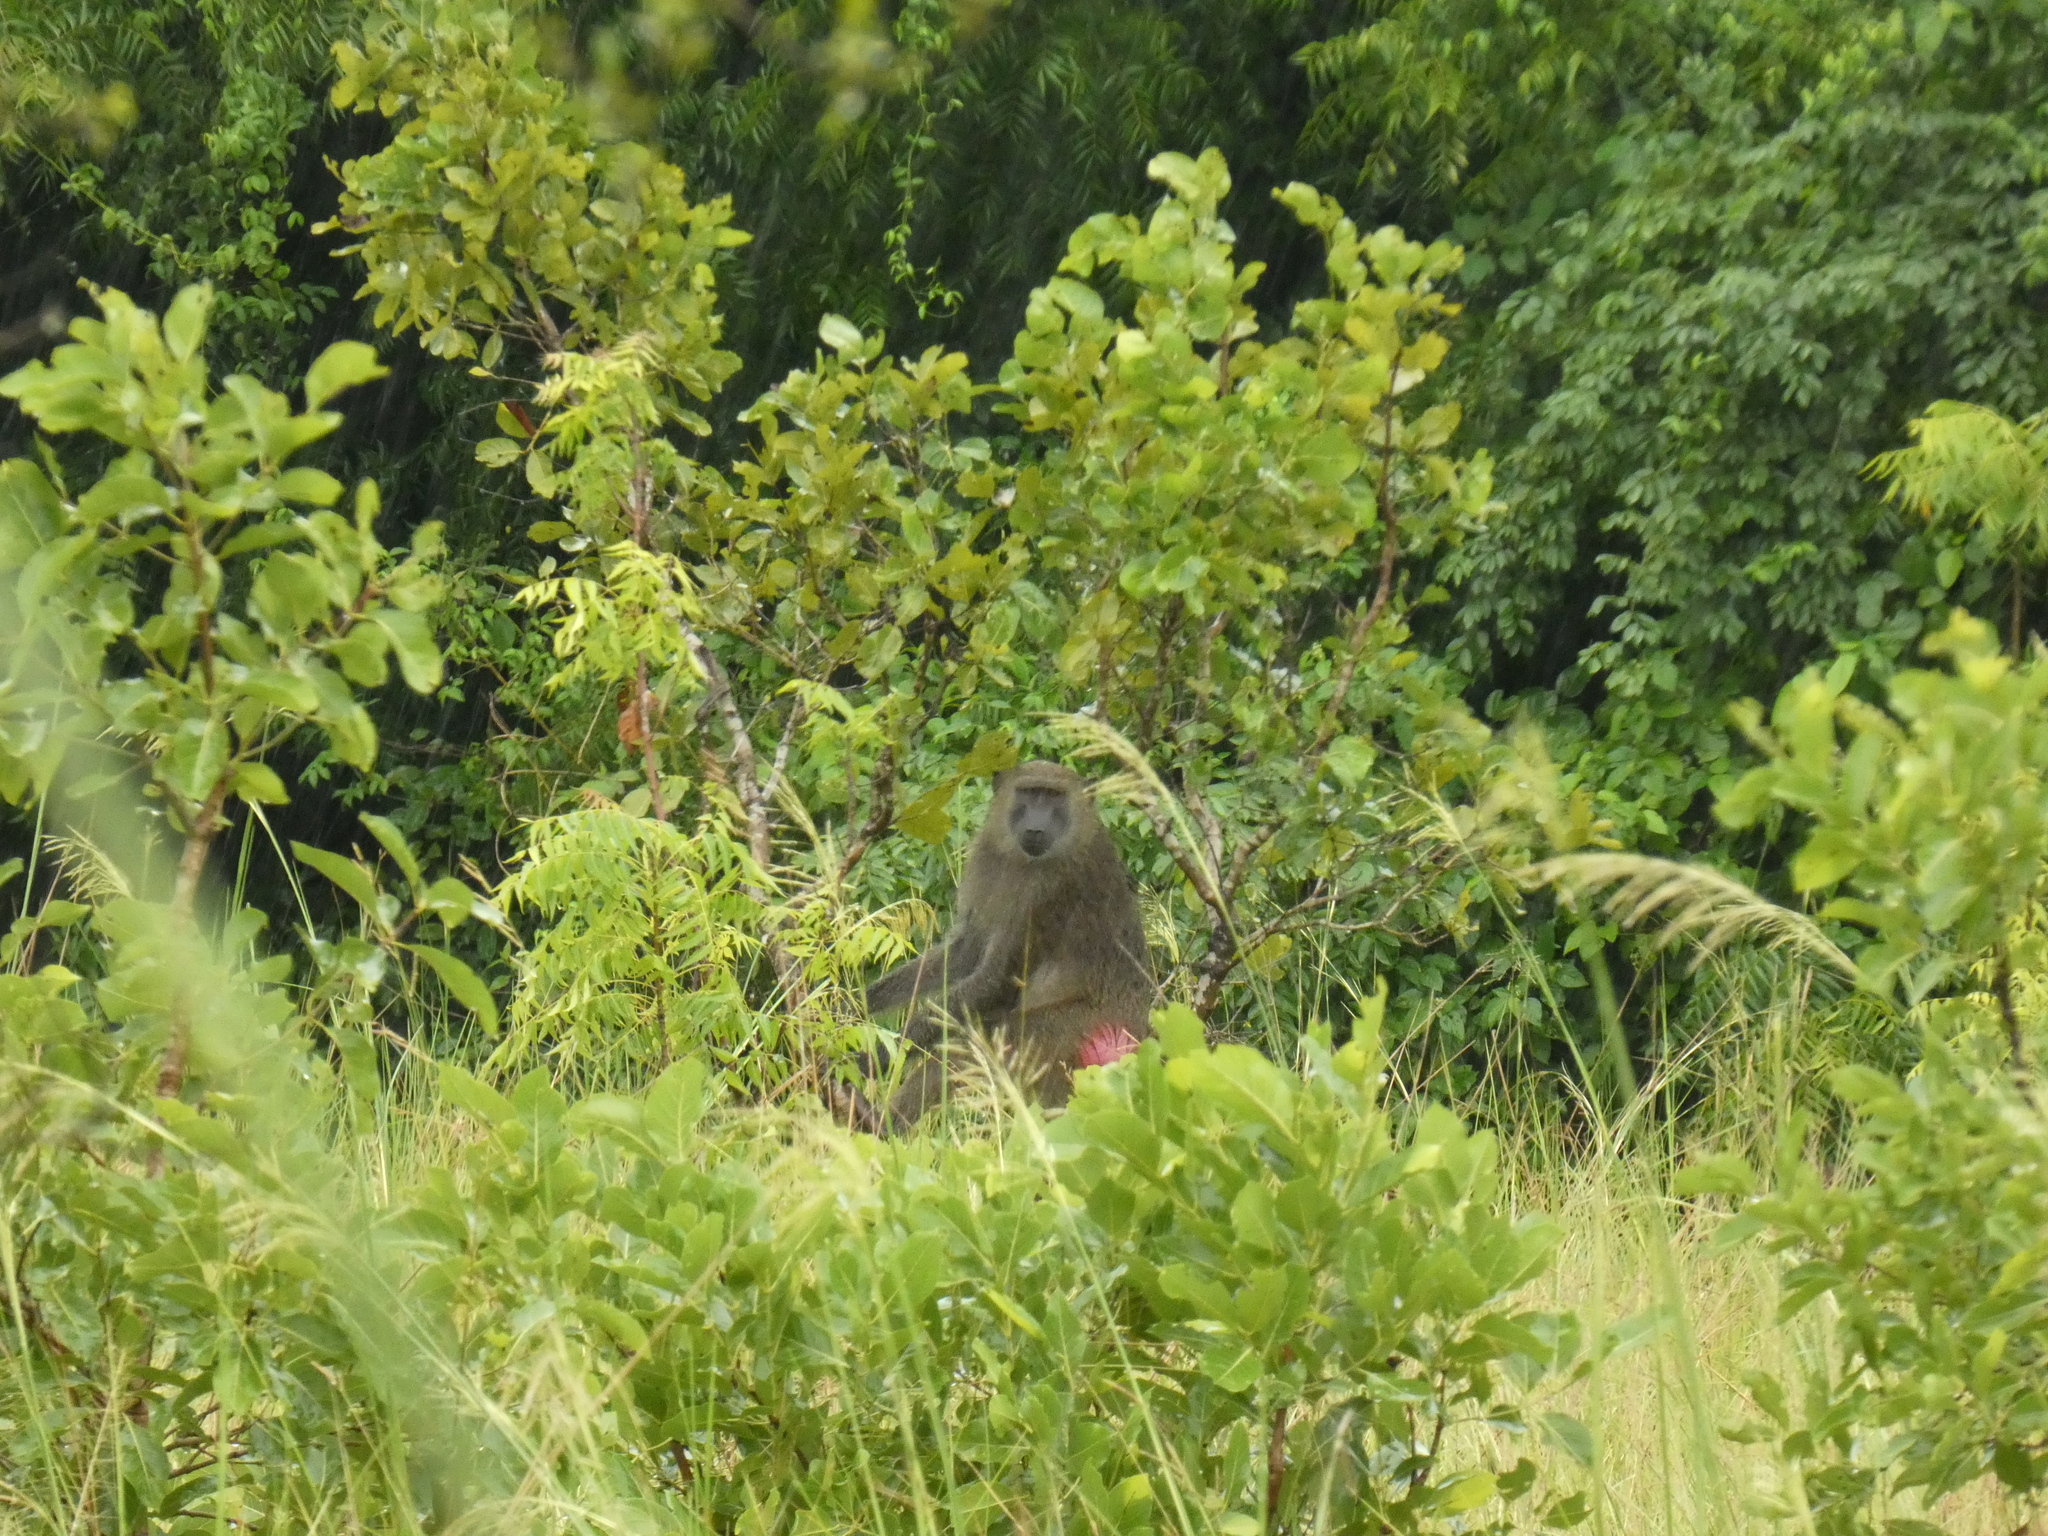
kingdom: Animalia
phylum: Chordata
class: Mammalia
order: Primates
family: Cercopithecidae
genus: Papio
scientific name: Papio anubis
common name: Olive baboon
